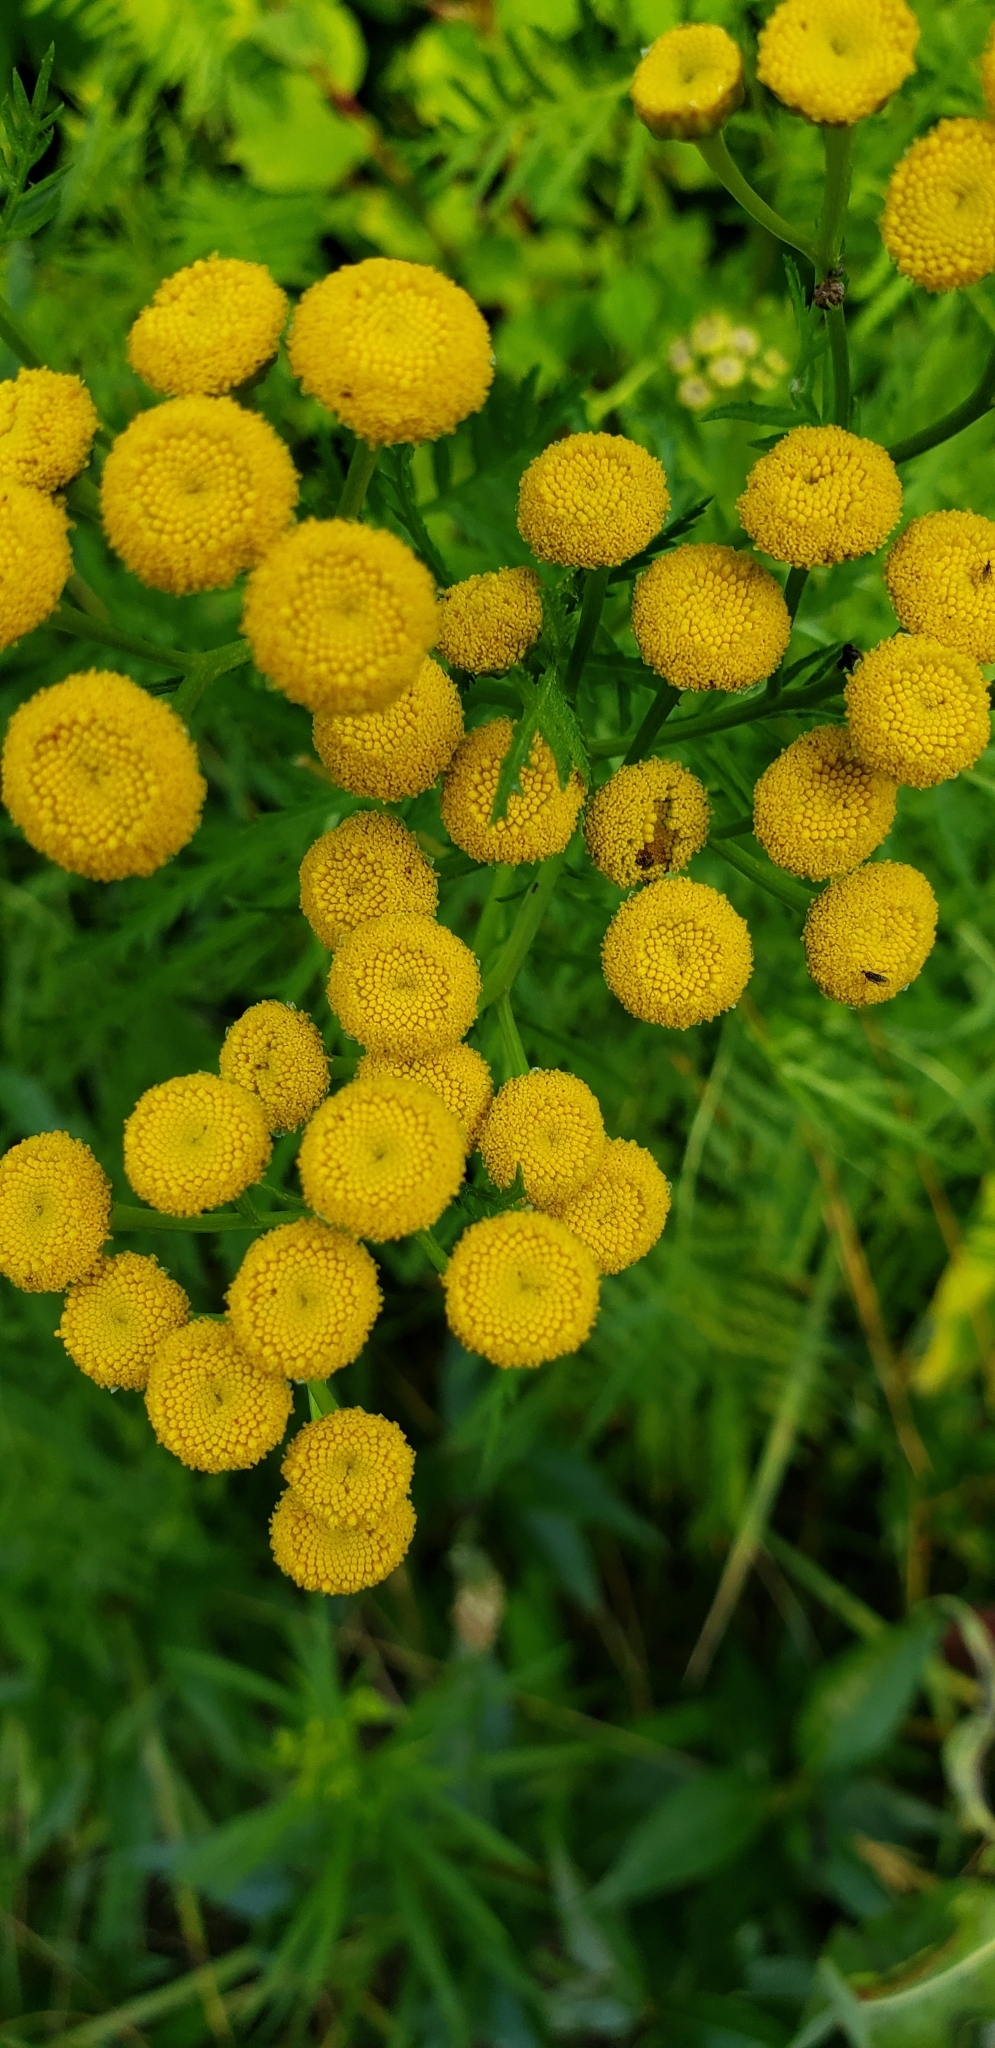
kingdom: Plantae
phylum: Tracheophyta
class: Magnoliopsida
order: Asterales
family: Asteraceae
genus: Tanacetum
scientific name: Tanacetum vulgare
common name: Common tansy
